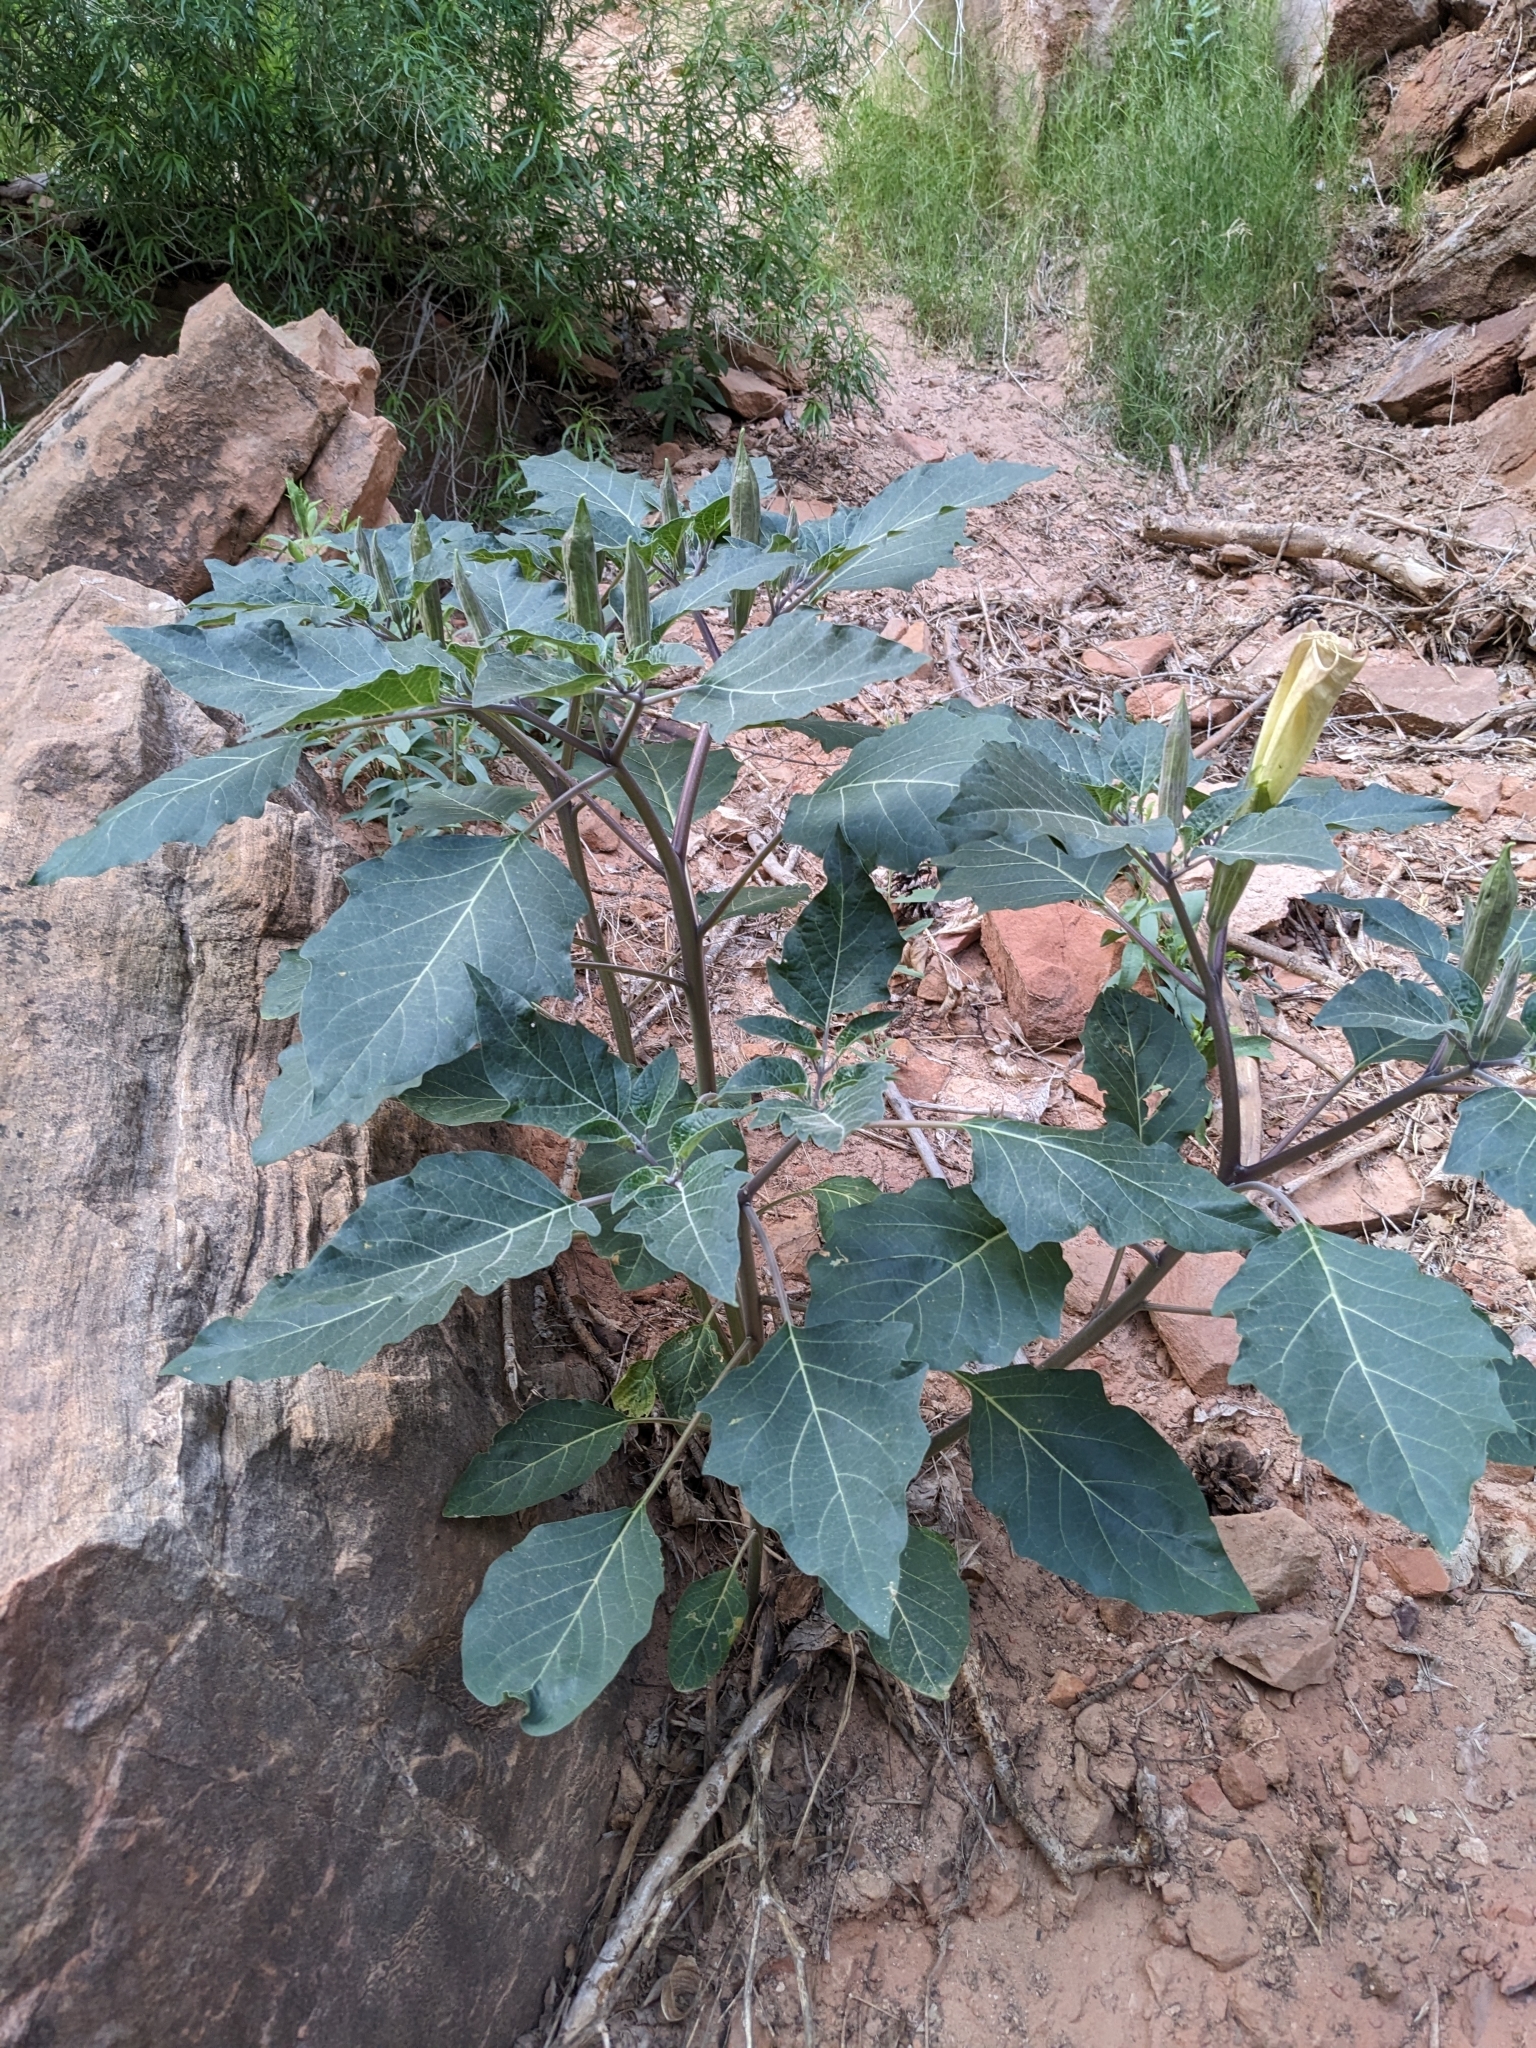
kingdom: Plantae
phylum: Tracheophyta
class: Magnoliopsida
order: Solanales
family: Solanaceae
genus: Datura
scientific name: Datura wrightii
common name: Sacred thorn-apple
